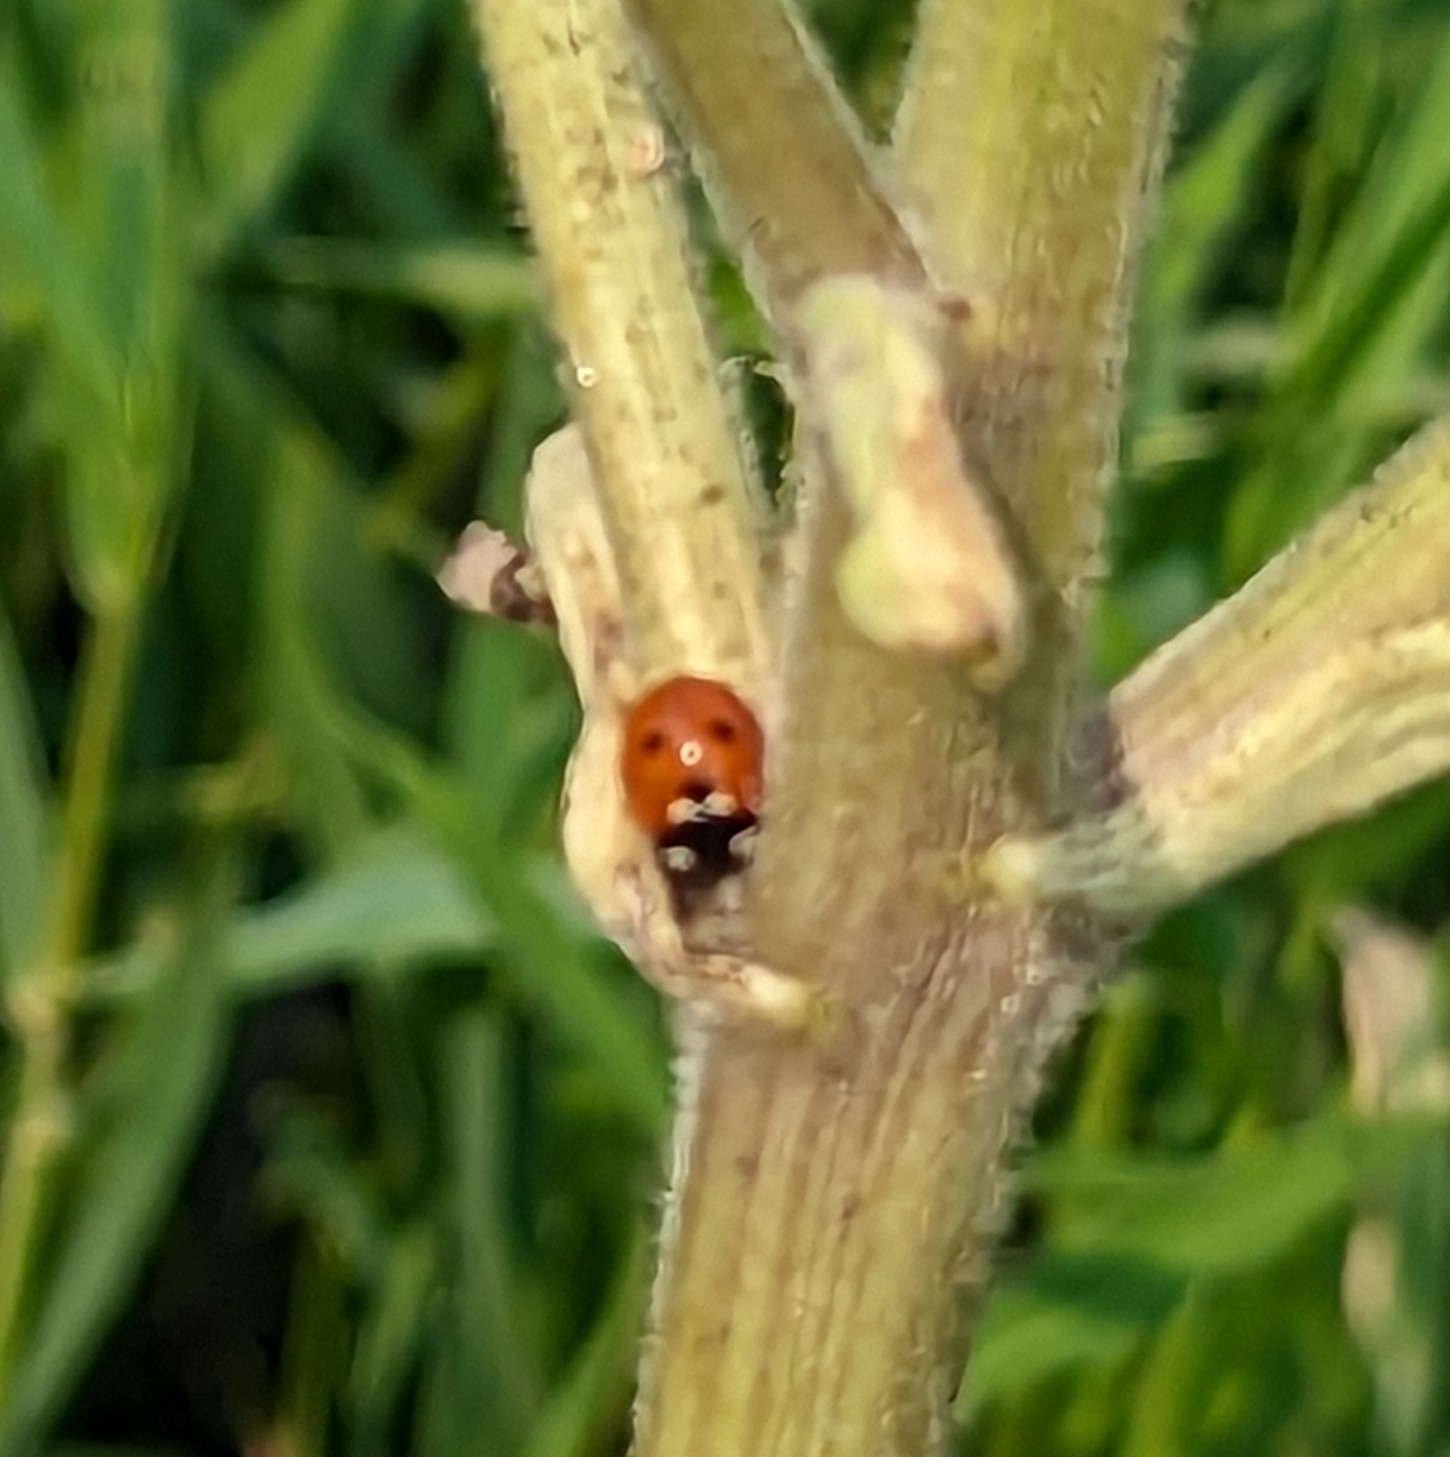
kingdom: Animalia
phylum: Arthropoda
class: Insecta
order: Coleoptera
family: Coccinellidae
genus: Coccinella
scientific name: Coccinella septempunctata
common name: Sevenspotted lady beetle
